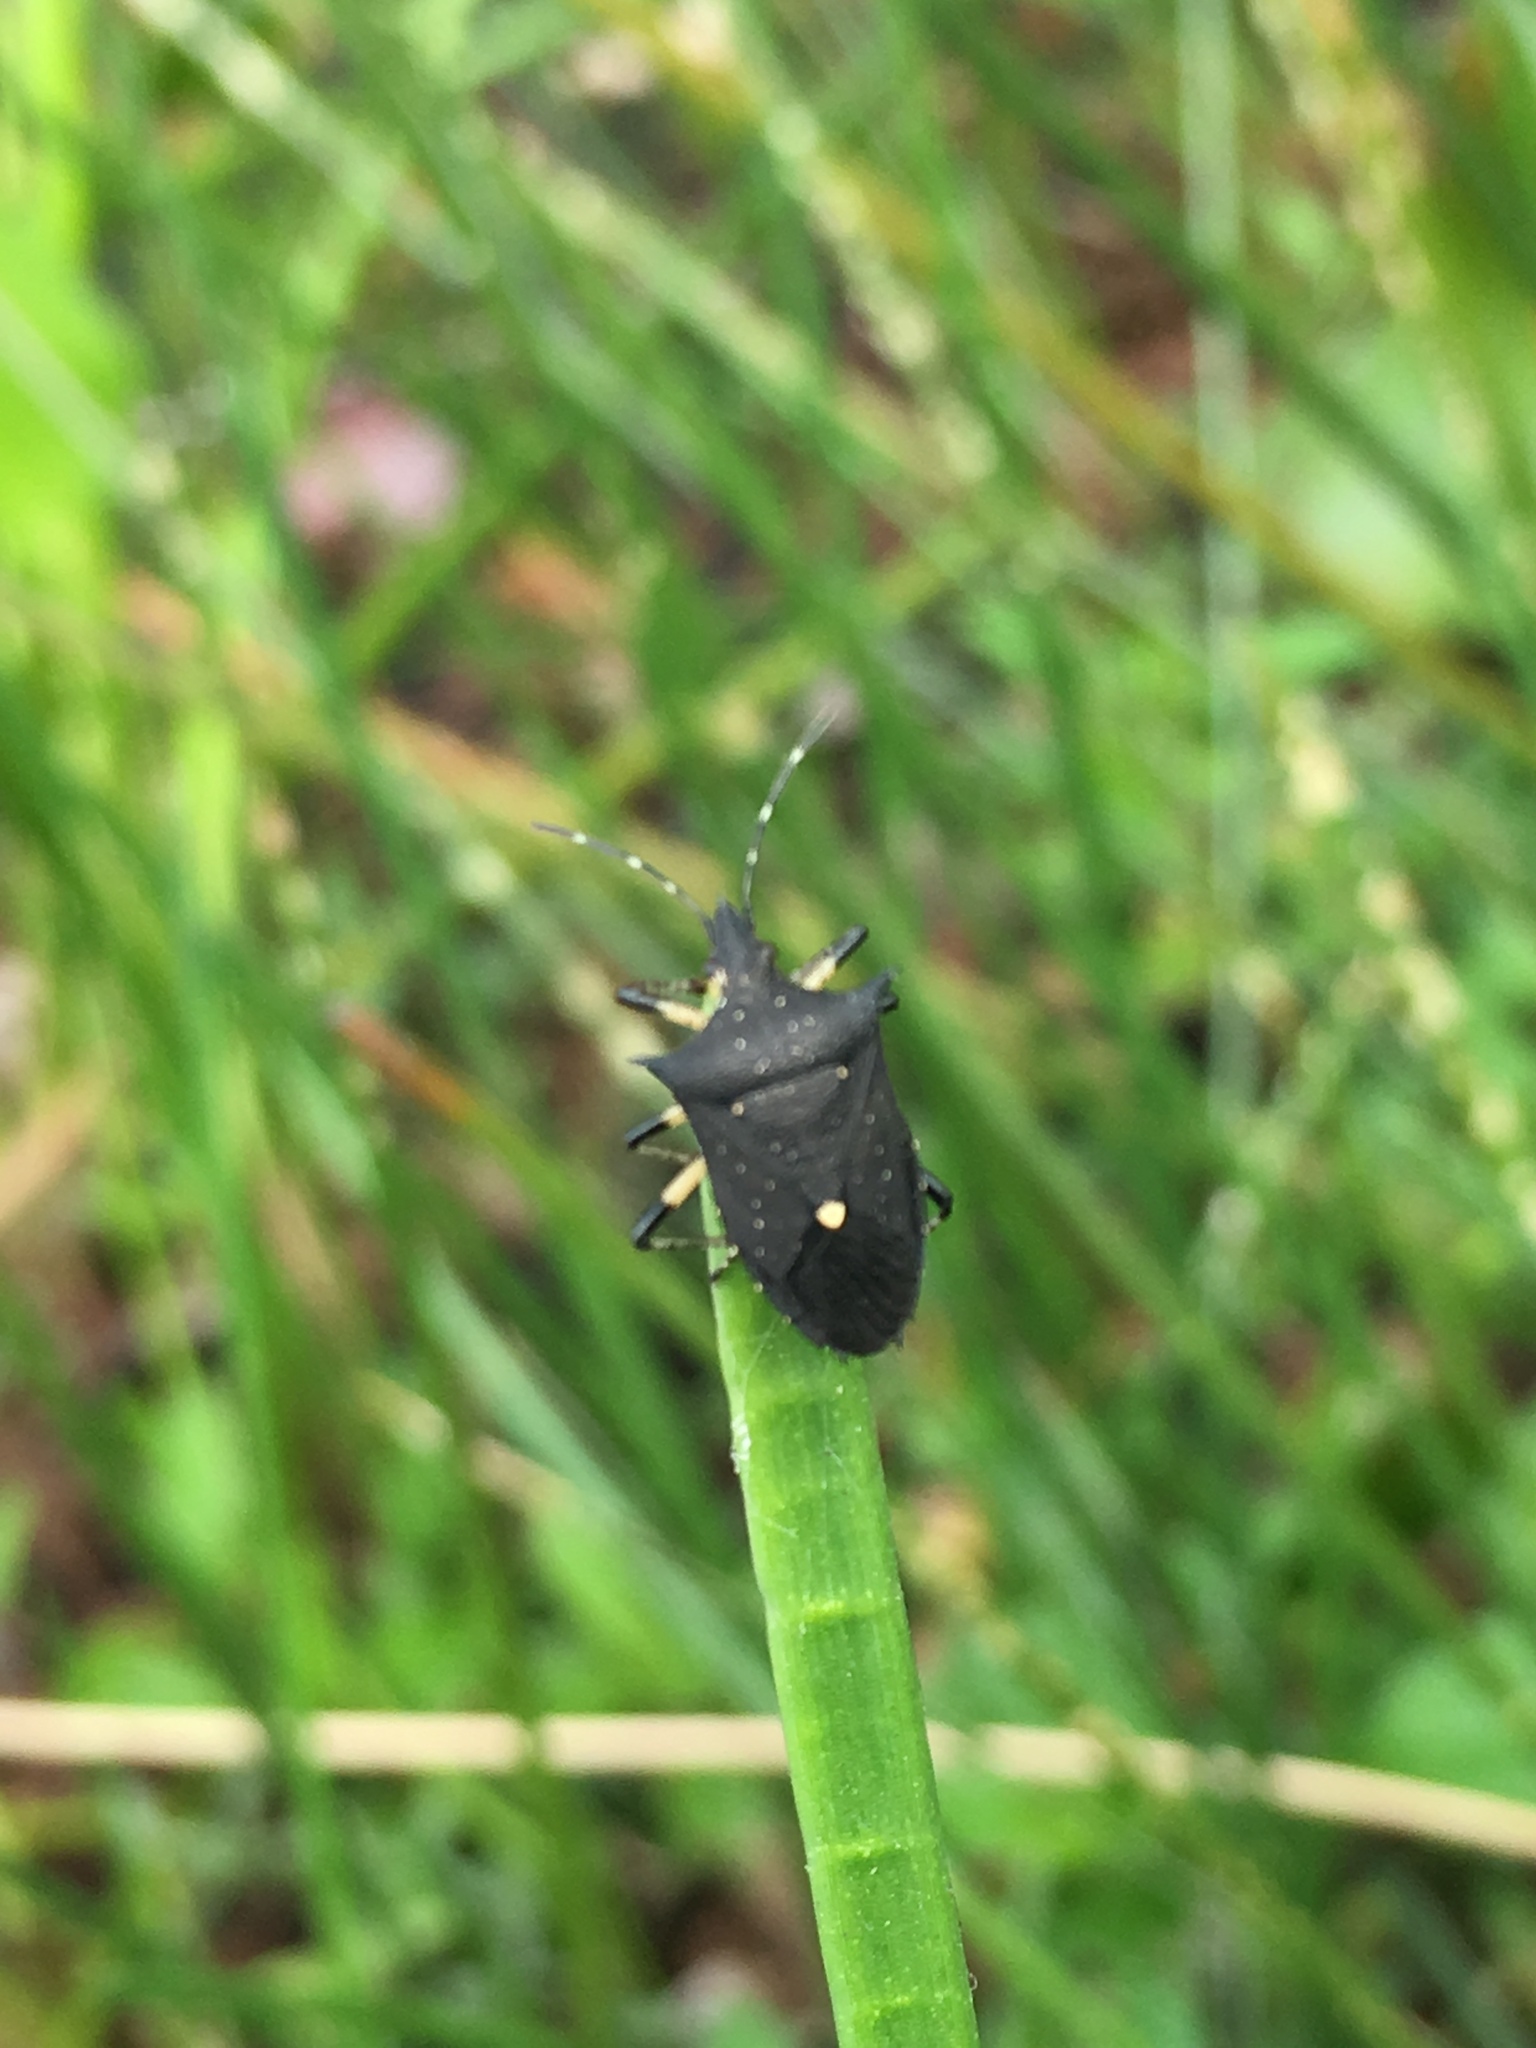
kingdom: Animalia
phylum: Arthropoda
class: Insecta
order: Hemiptera
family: Pentatomidae
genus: Proxys
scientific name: Proxys punctulatus
